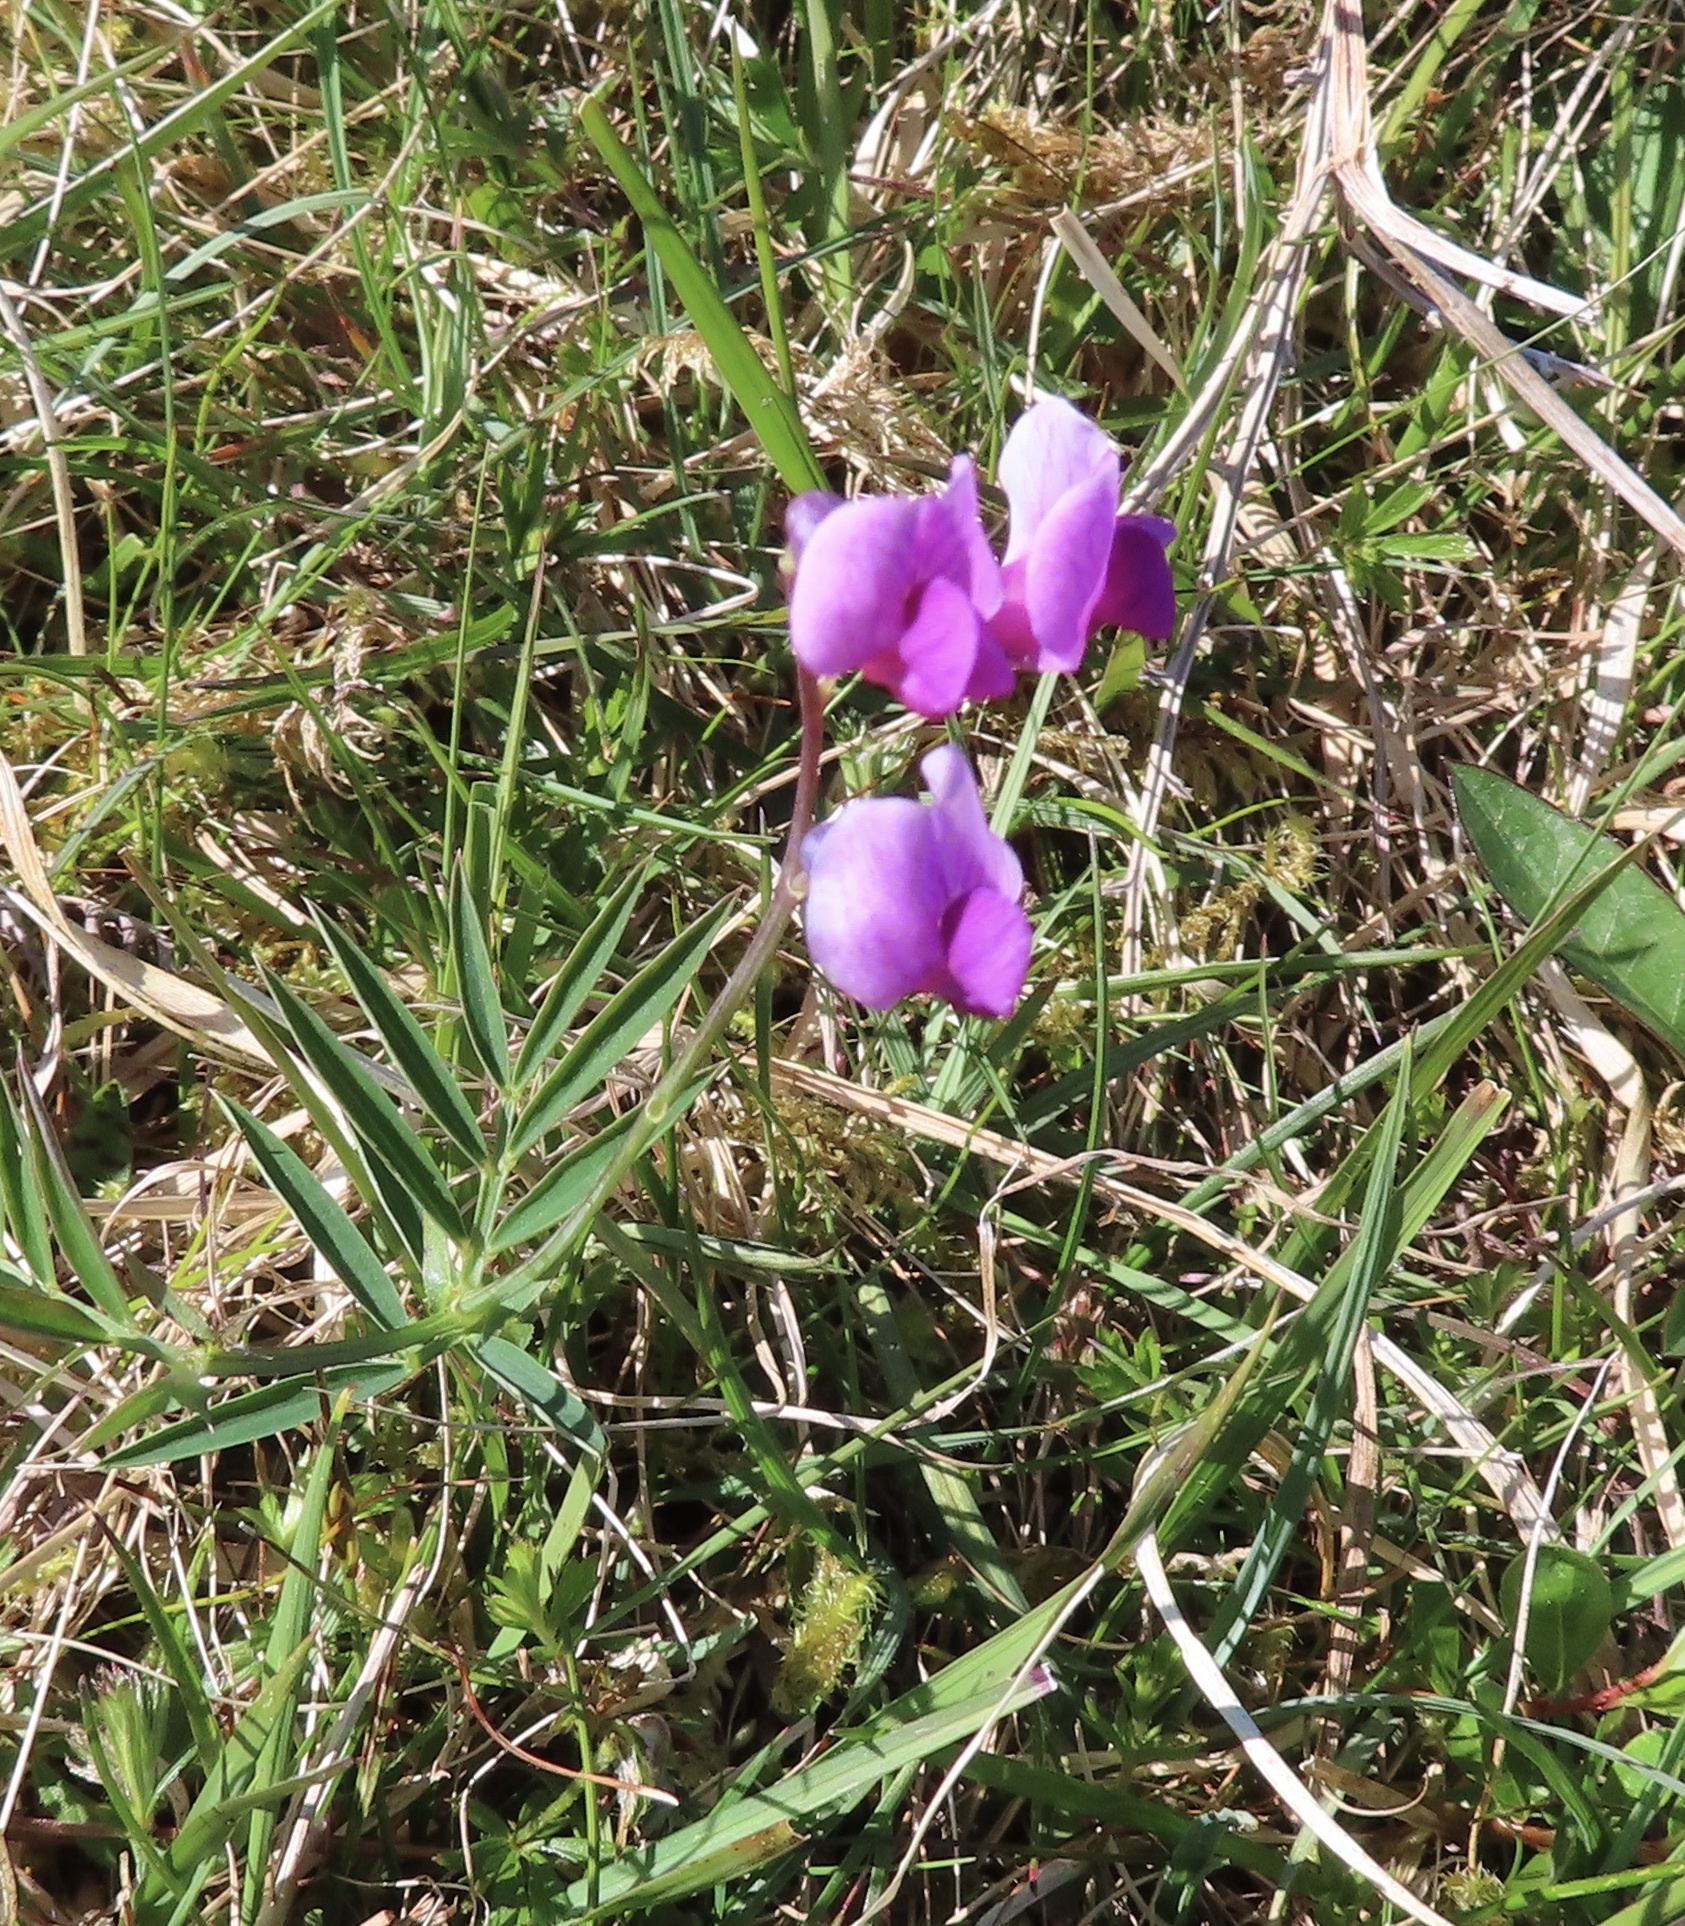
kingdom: Plantae
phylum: Tracheophyta
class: Magnoliopsida
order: Fabales
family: Fabaceae
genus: Lathyrus
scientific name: Lathyrus linifolius
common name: Bitter-vetch
